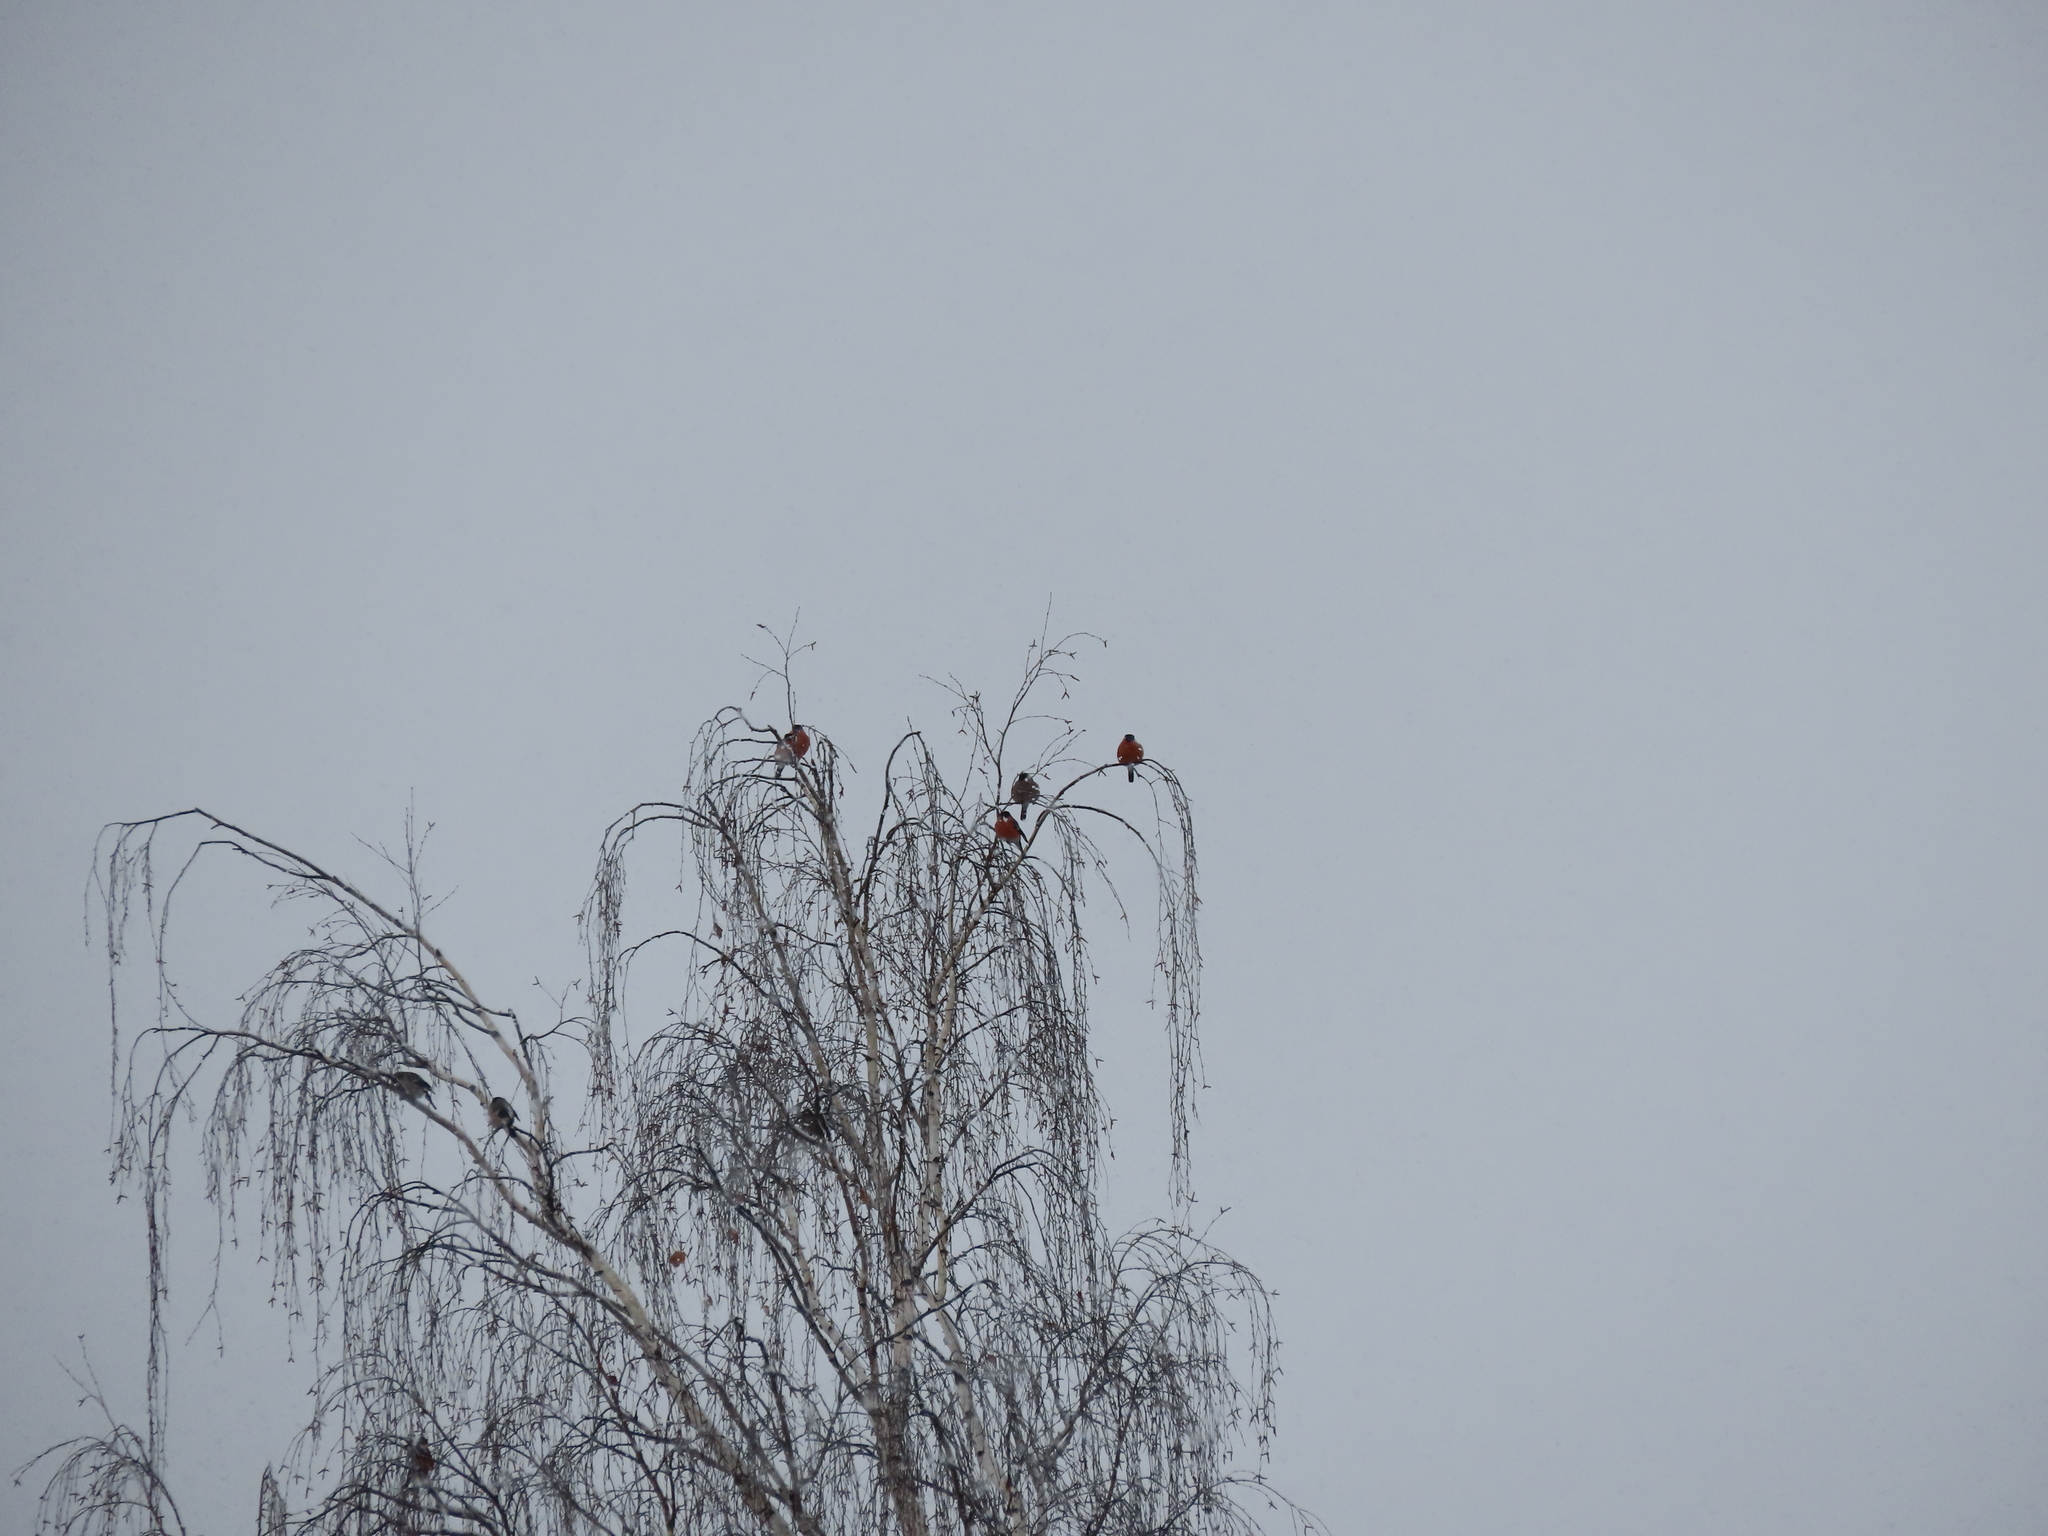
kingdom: Animalia
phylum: Chordata
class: Aves
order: Passeriformes
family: Fringillidae
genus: Pyrrhula
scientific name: Pyrrhula pyrrhula
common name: Eurasian bullfinch
